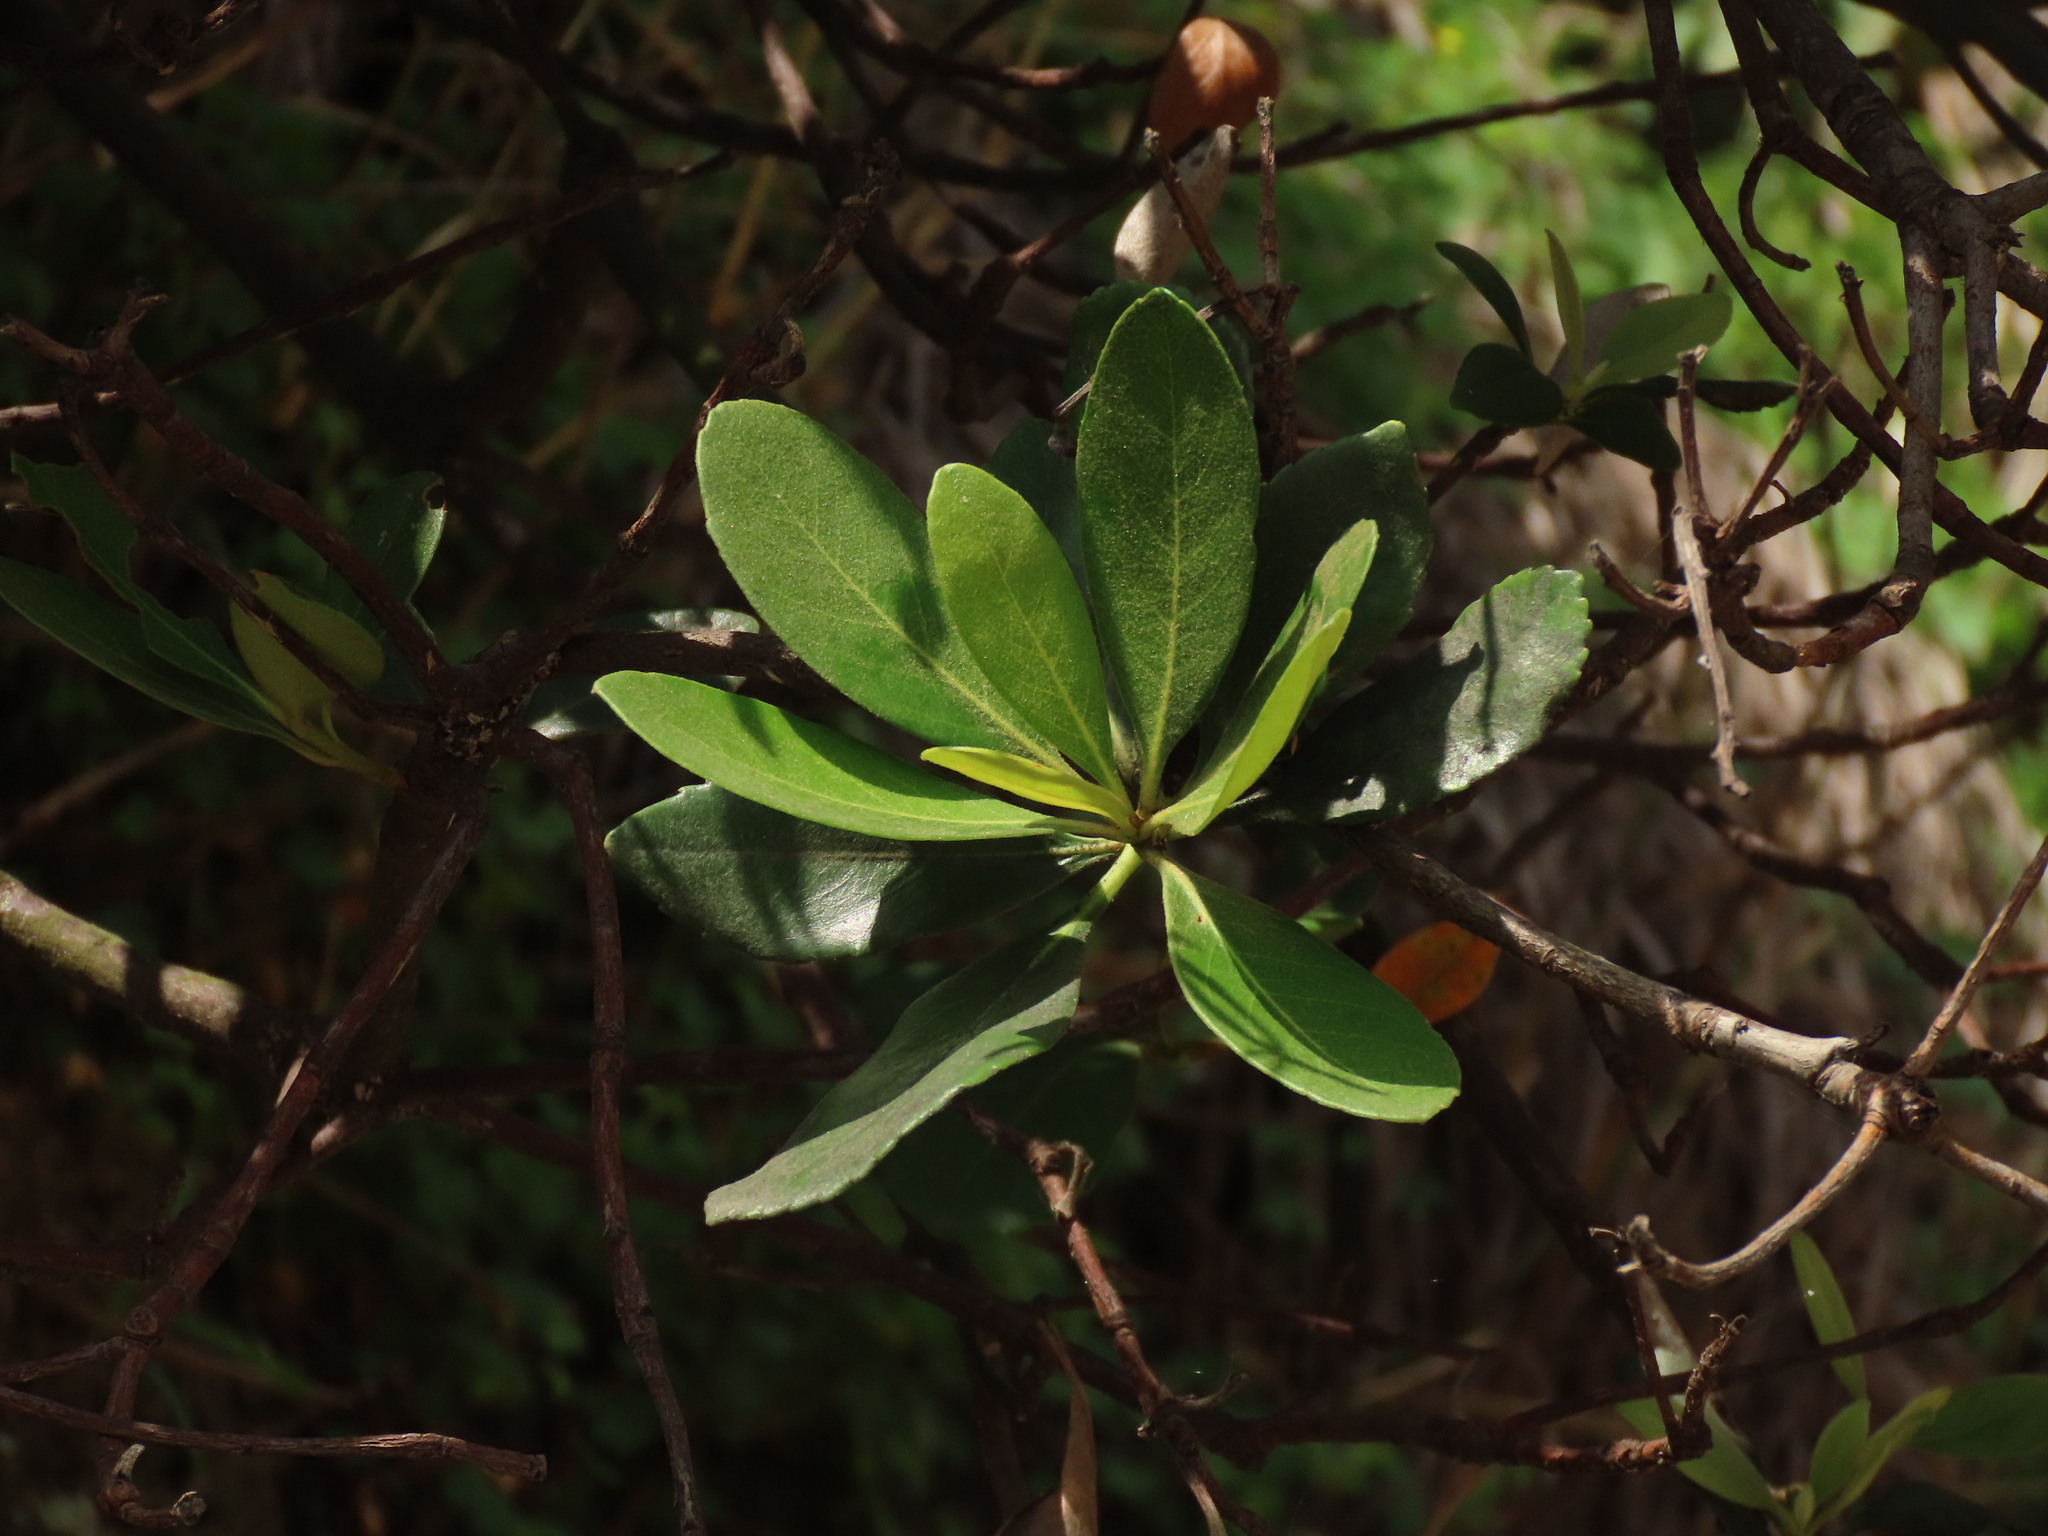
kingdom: Plantae
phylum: Tracheophyta
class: Magnoliopsida
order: Rosales
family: Rosaceae
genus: Rhaphiolepis
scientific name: Rhaphiolepis umbellata
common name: Yedda-hawthorn
